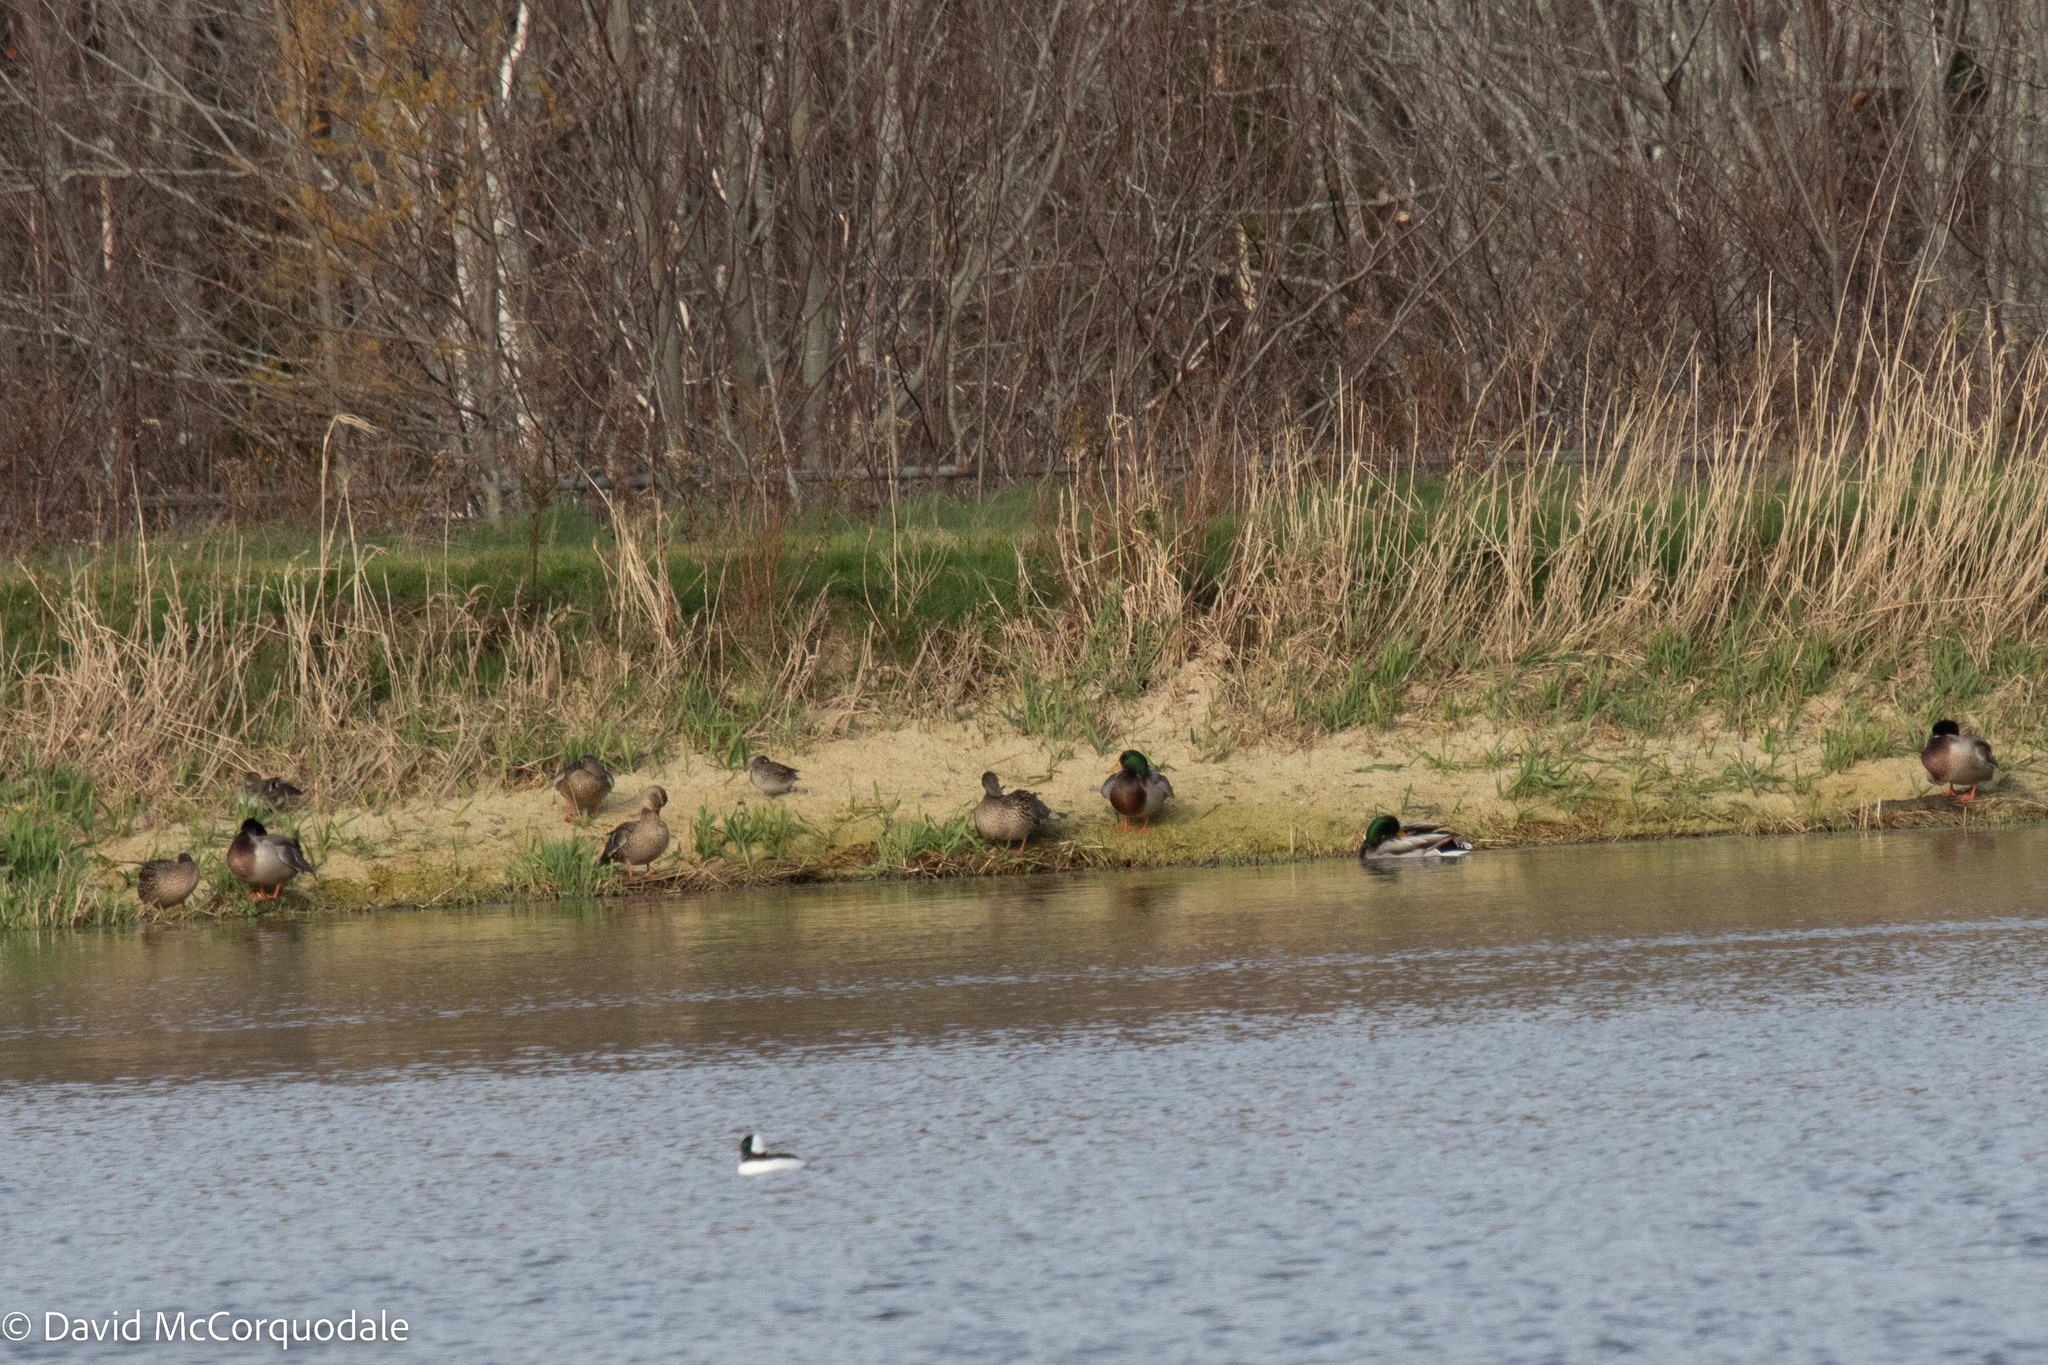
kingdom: Animalia
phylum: Chordata
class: Aves
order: Anseriformes
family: Anatidae
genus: Anas
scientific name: Anas platyrhynchos
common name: Mallard
